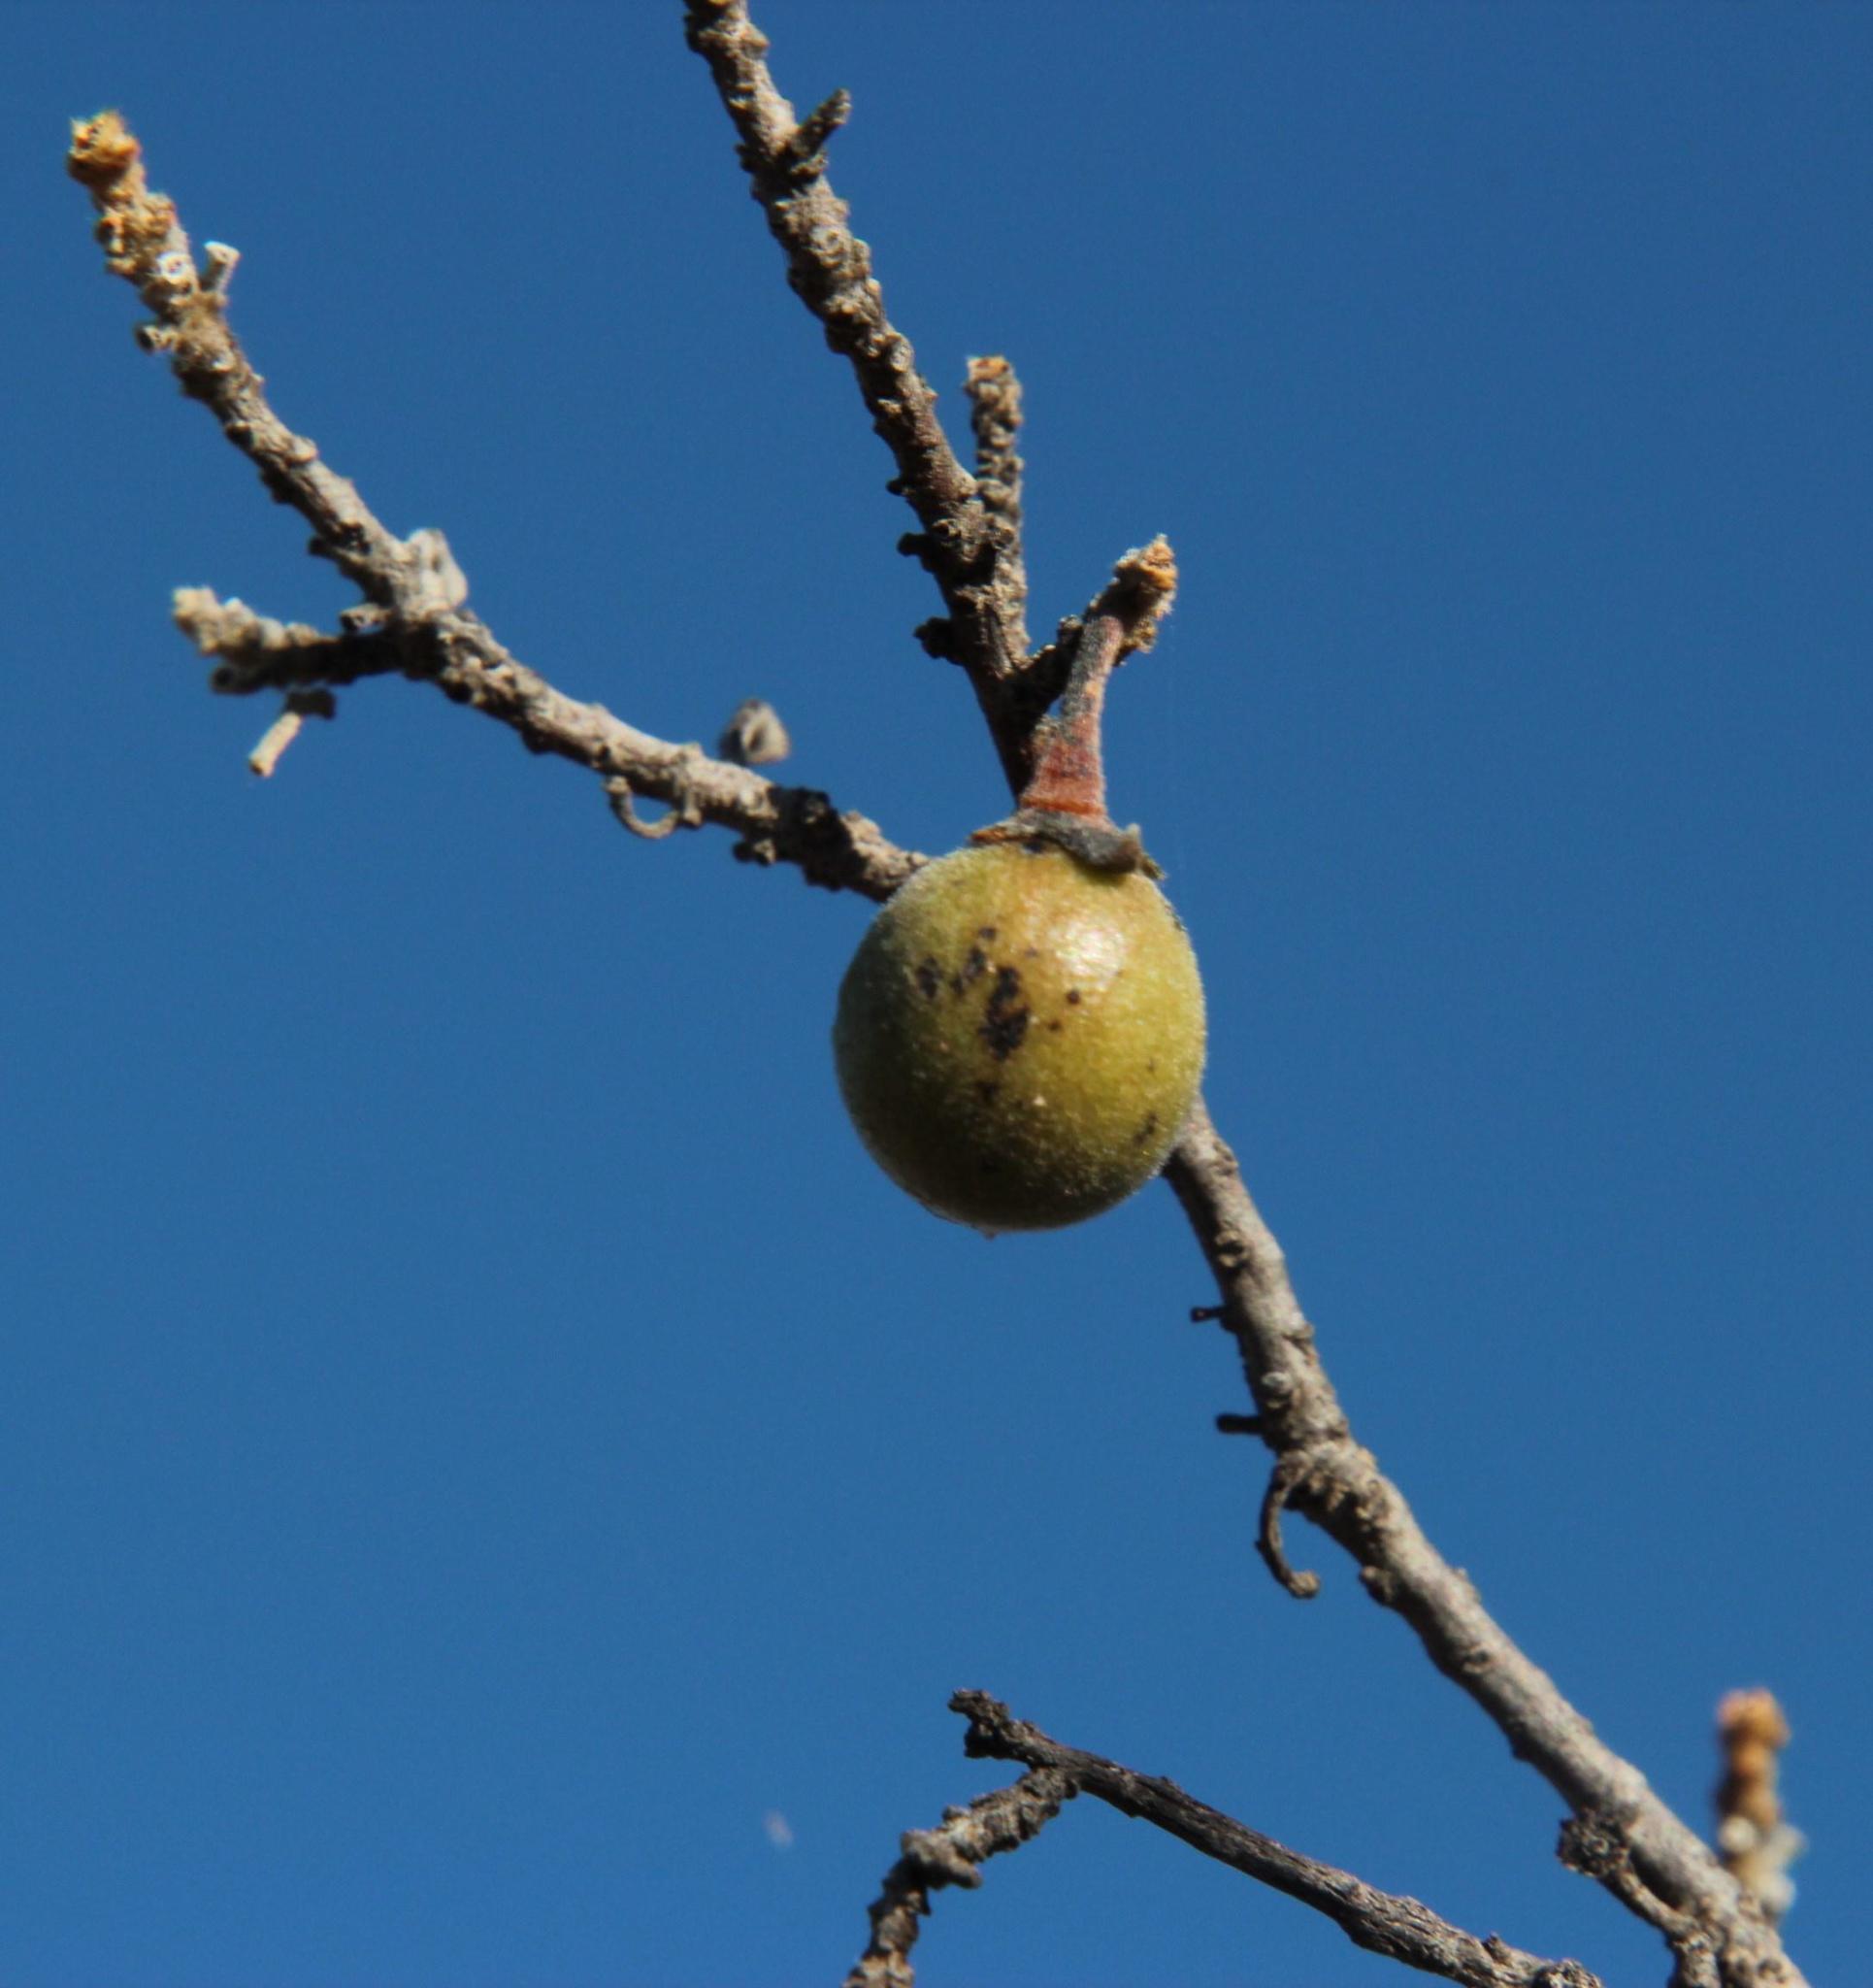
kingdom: Plantae
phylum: Tracheophyta
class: Magnoliopsida
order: Ericales
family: Ebenaceae
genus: Diospyros
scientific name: Diospyros lycioides
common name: Red star apple
